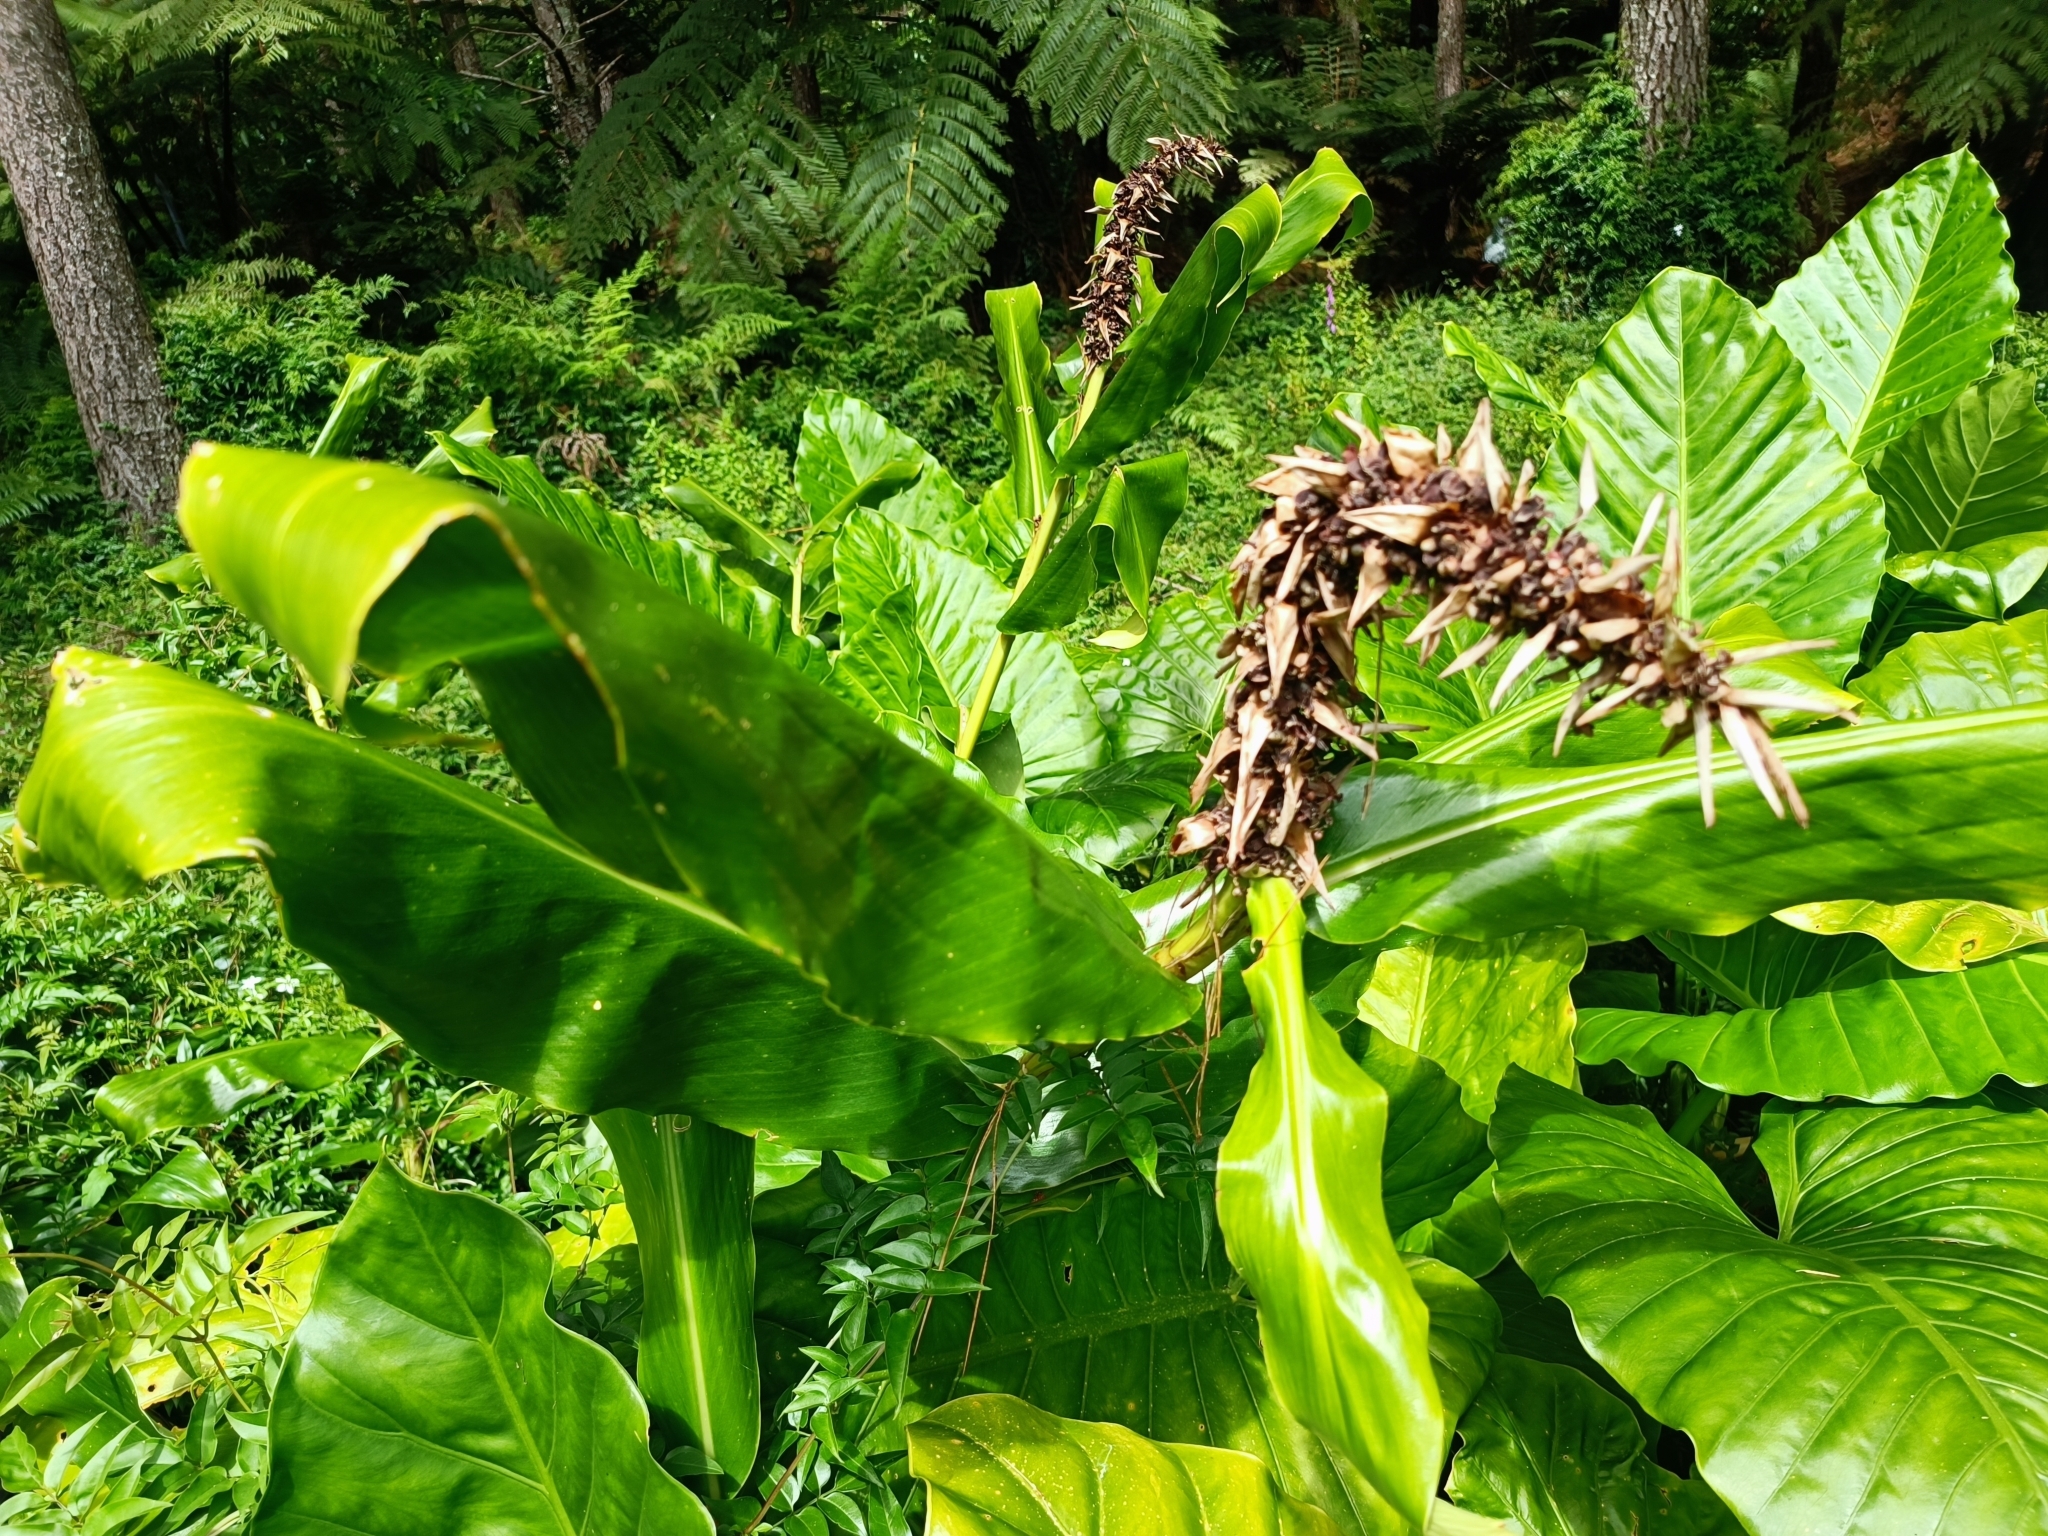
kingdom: Plantae
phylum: Tracheophyta
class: Liliopsida
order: Zingiberales
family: Zingiberaceae
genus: Hedychium
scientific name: Hedychium gardnerianum
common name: Himalayan ginger
